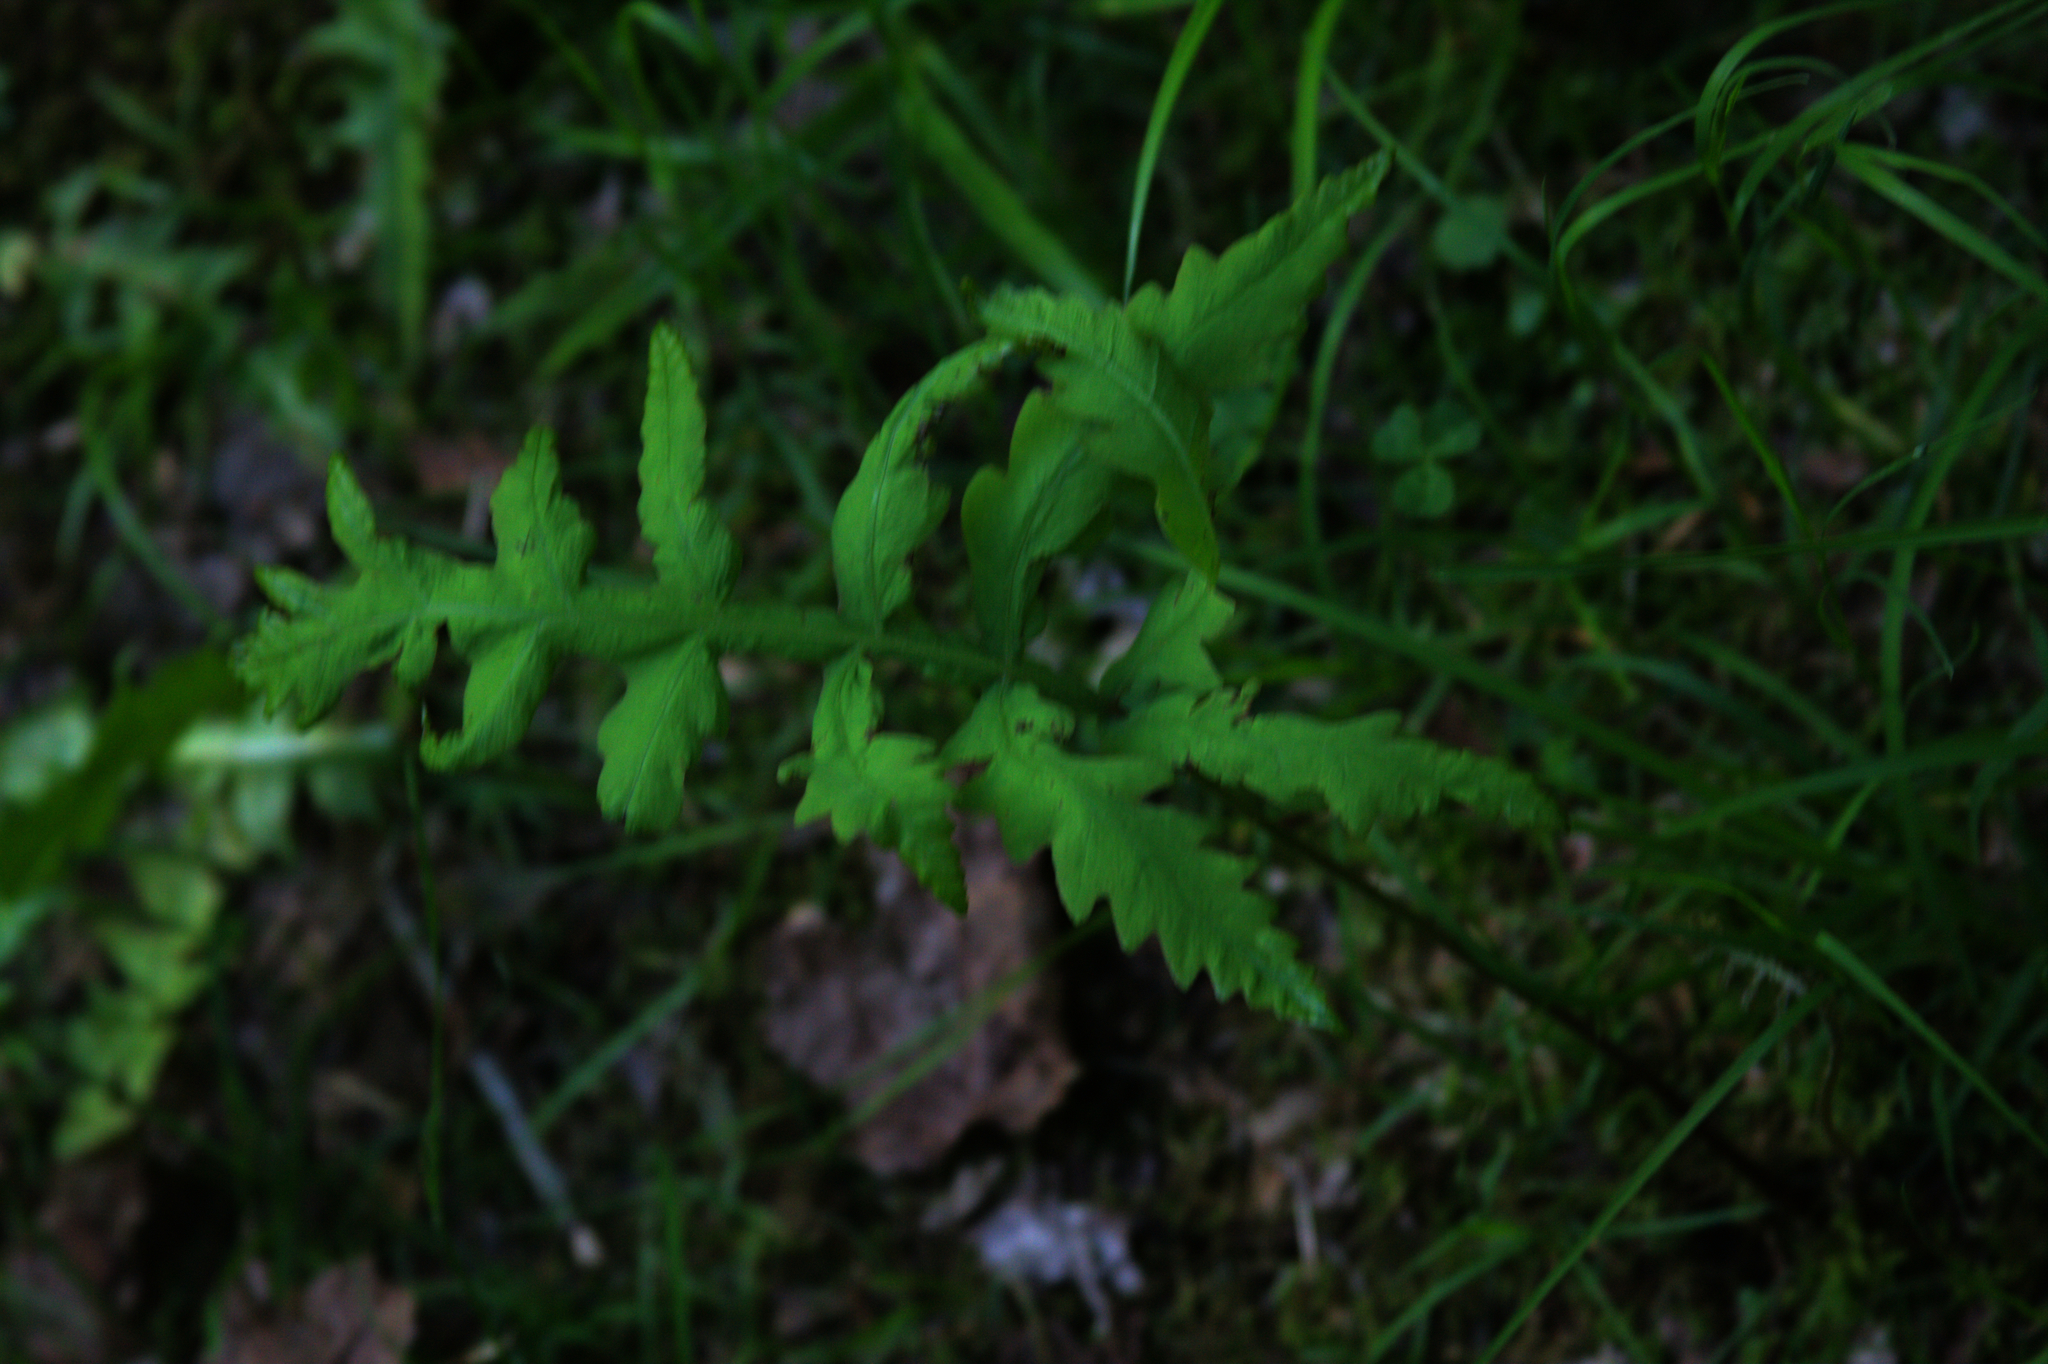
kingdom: Plantae
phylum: Tracheophyta
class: Polypodiopsida
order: Polypodiales
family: Onocleaceae
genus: Onoclea
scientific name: Onoclea sensibilis
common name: Sensitive fern
